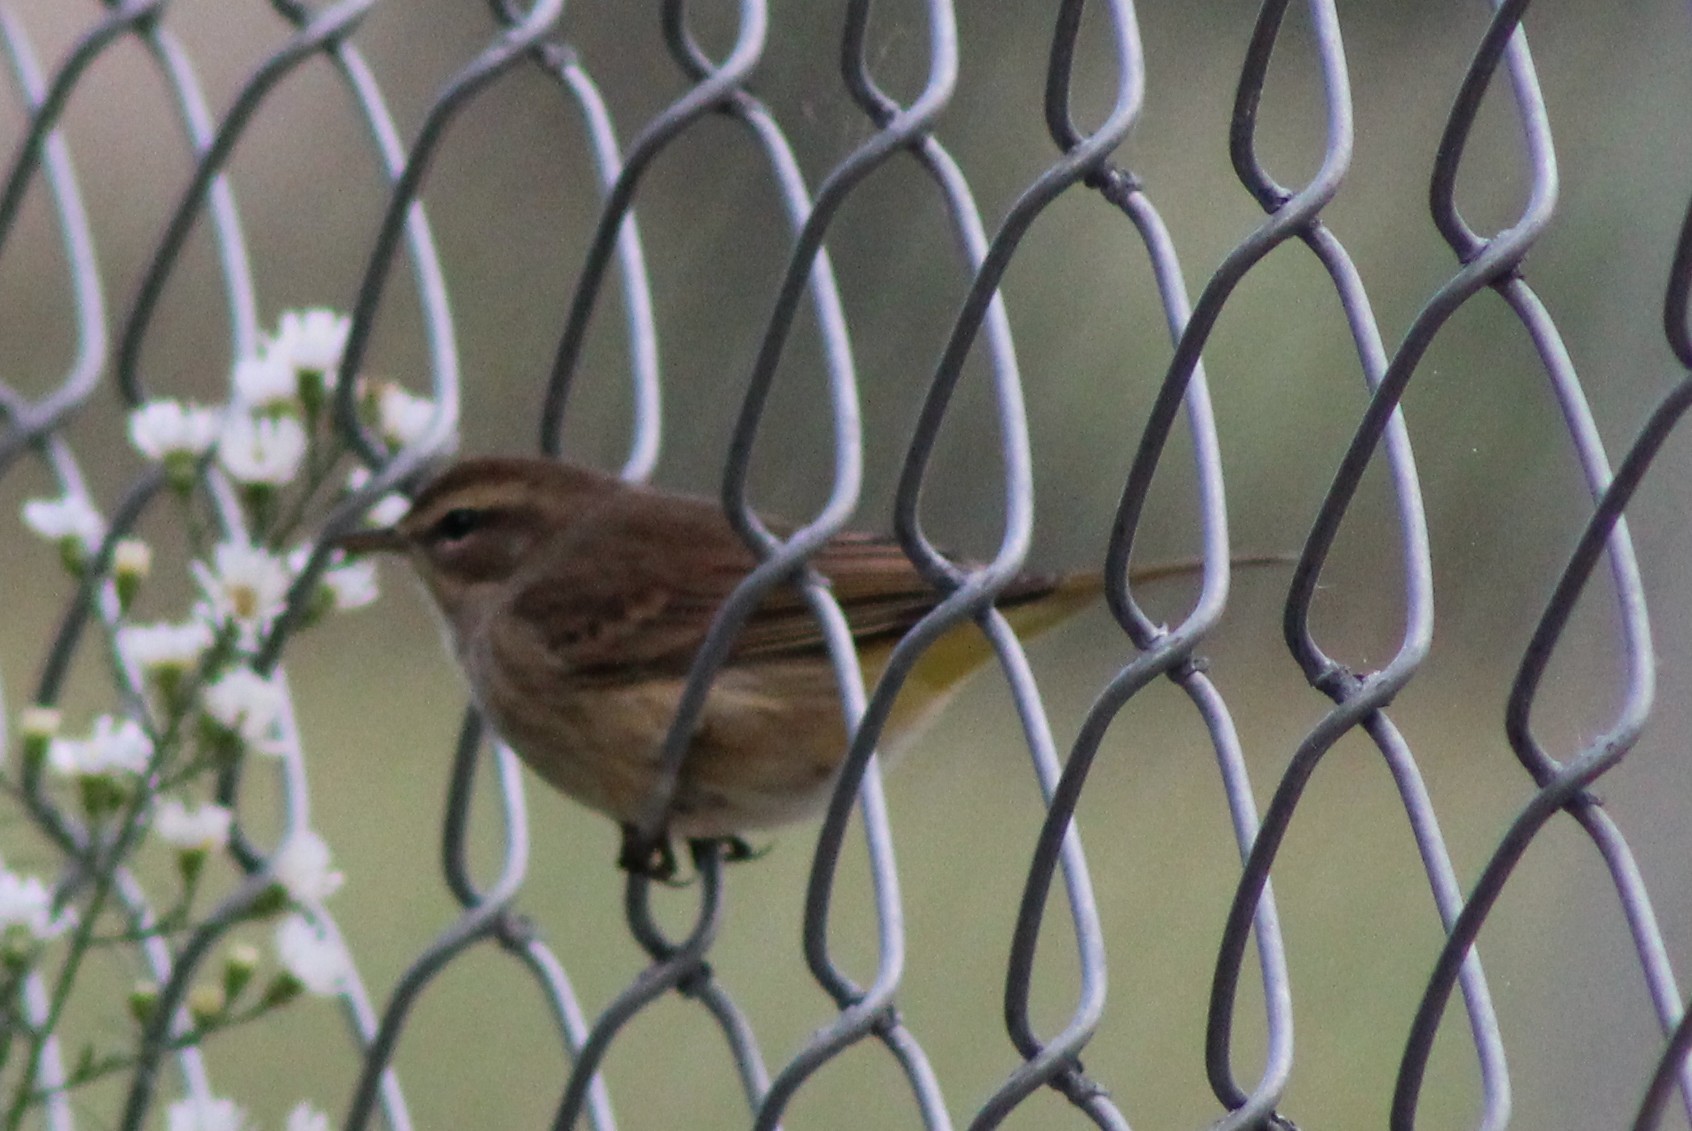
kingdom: Animalia
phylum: Chordata
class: Aves
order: Passeriformes
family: Parulidae
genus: Setophaga
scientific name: Setophaga palmarum
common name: Palm warbler
